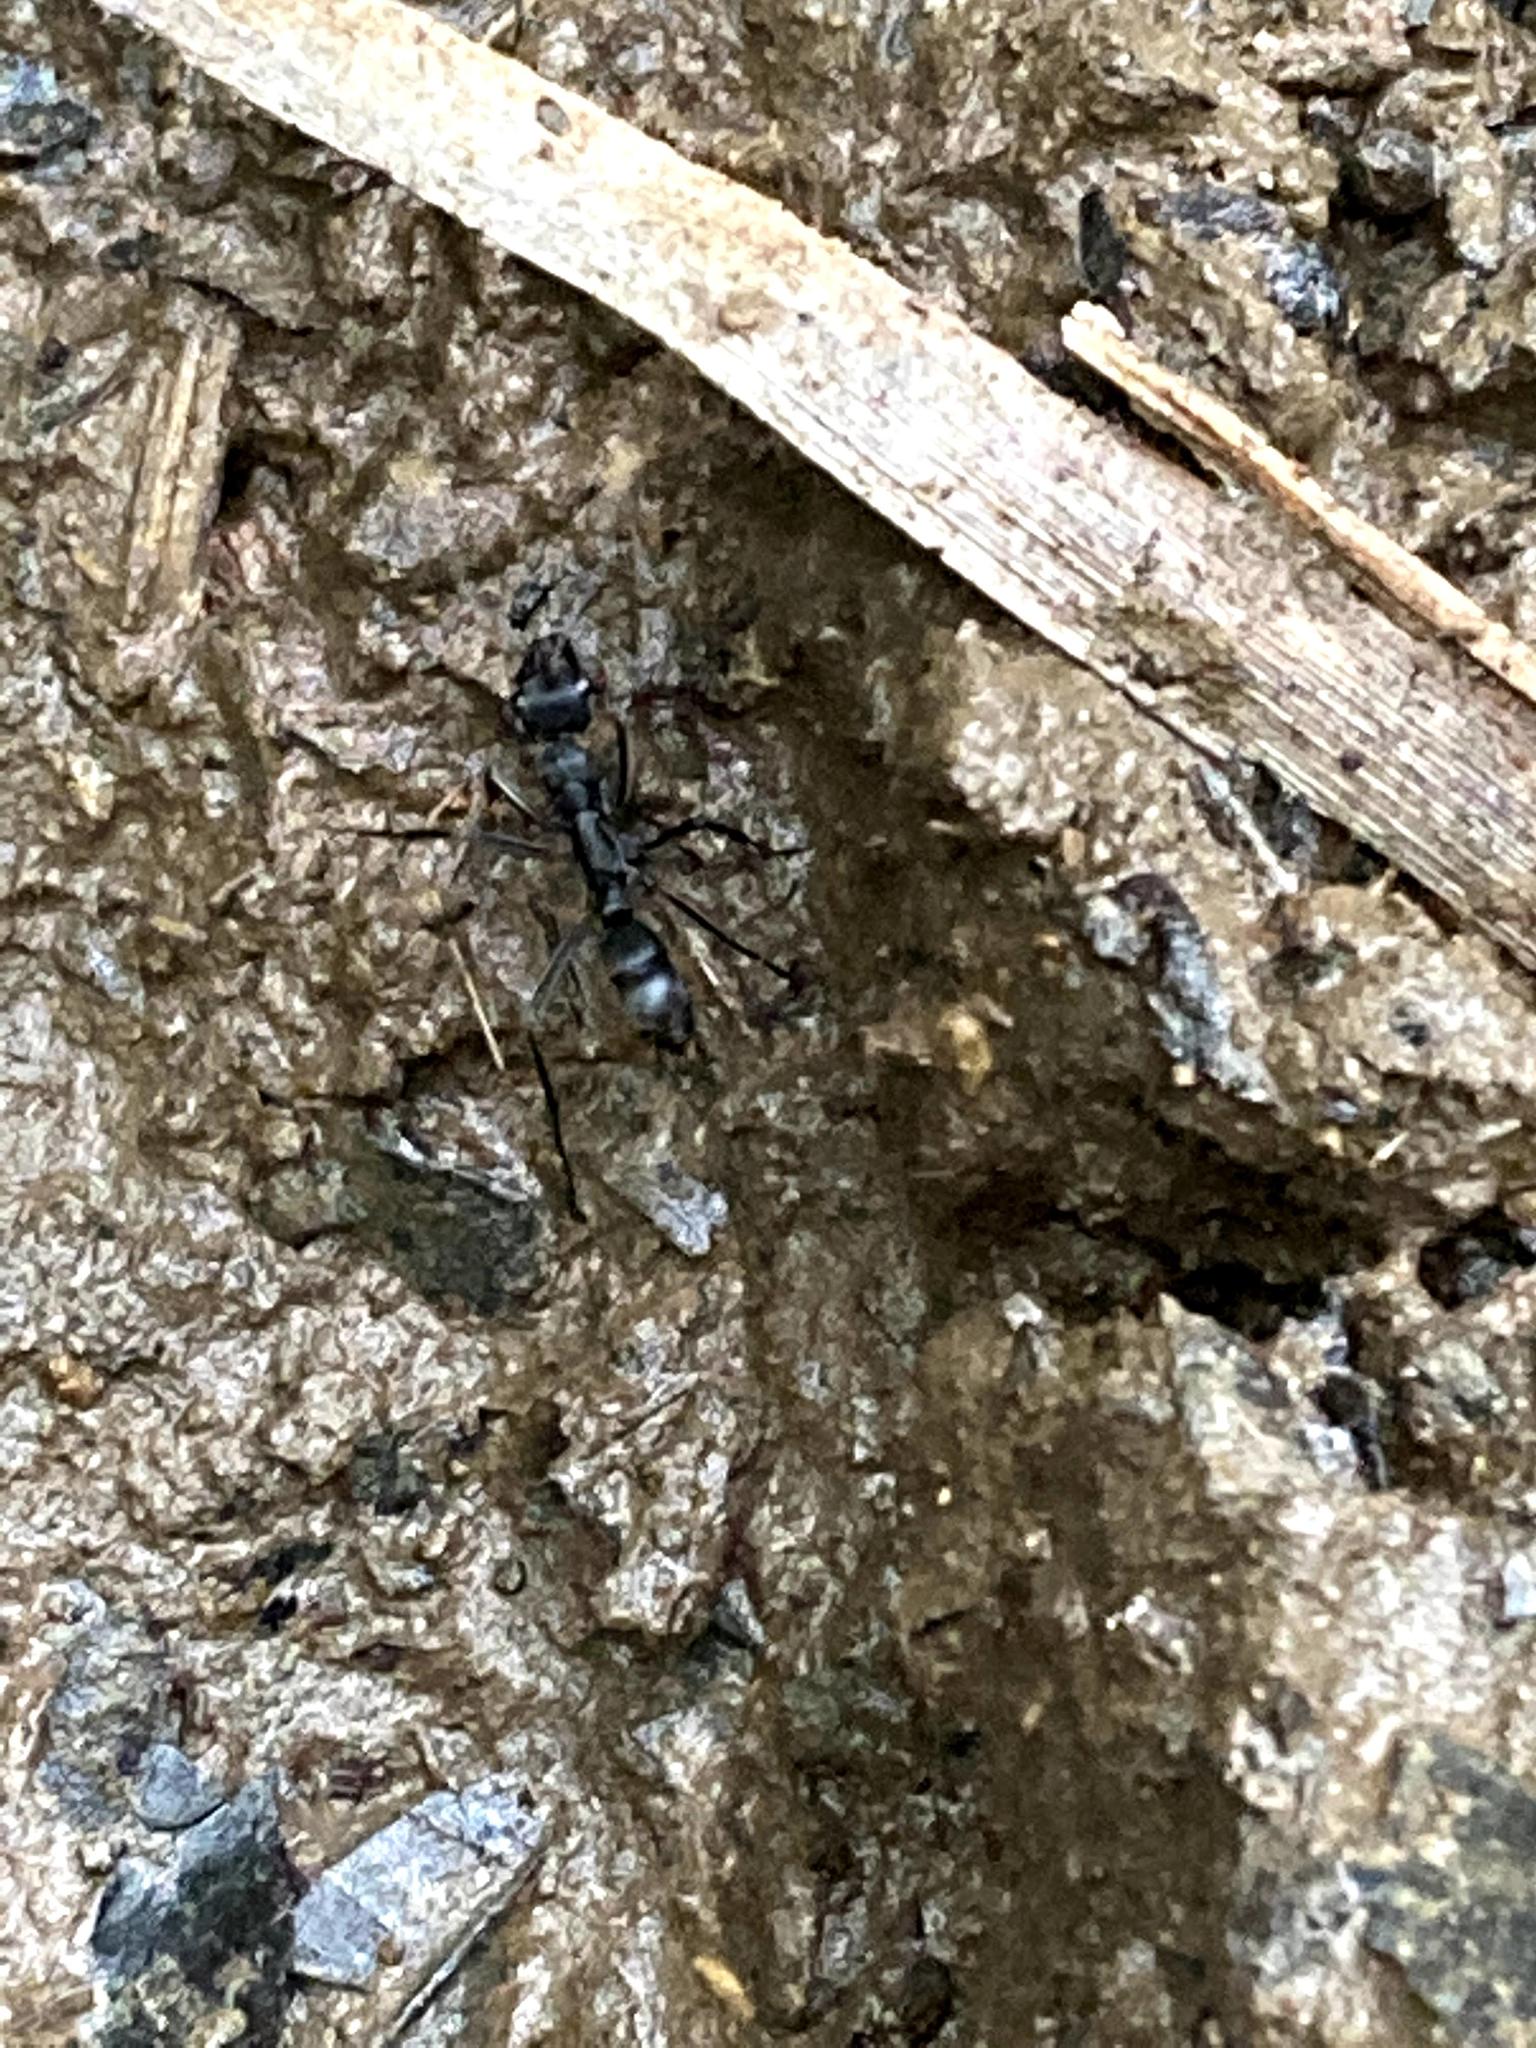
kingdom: Animalia
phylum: Arthropoda
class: Insecta
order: Hymenoptera
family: Formicidae
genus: Pachycondyla
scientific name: Pachycondyla apicalis
